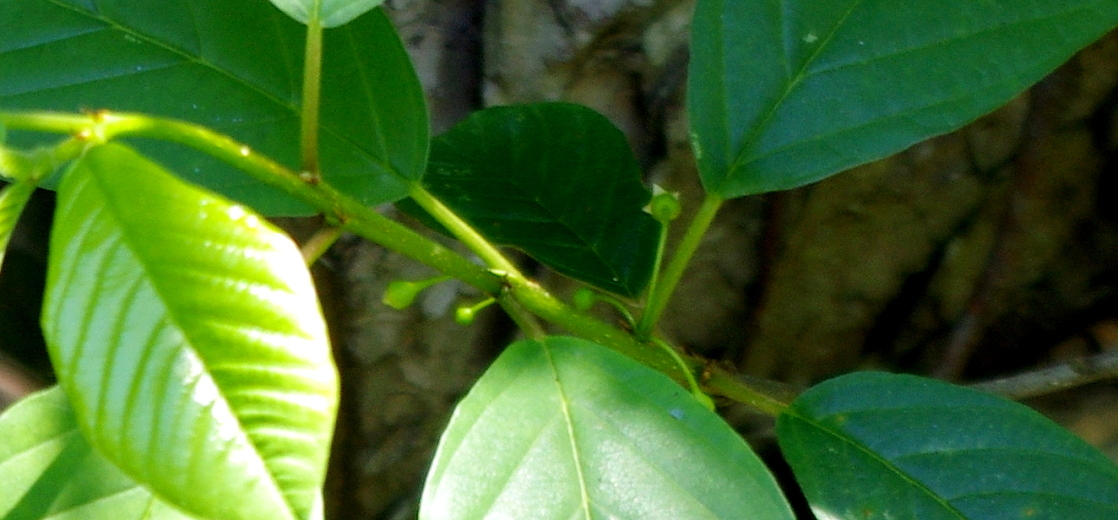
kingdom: Plantae
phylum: Tracheophyta
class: Magnoliopsida
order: Rosales
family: Rhamnaceae
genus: Frangula
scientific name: Frangula alnus
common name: Alder buckthorn
